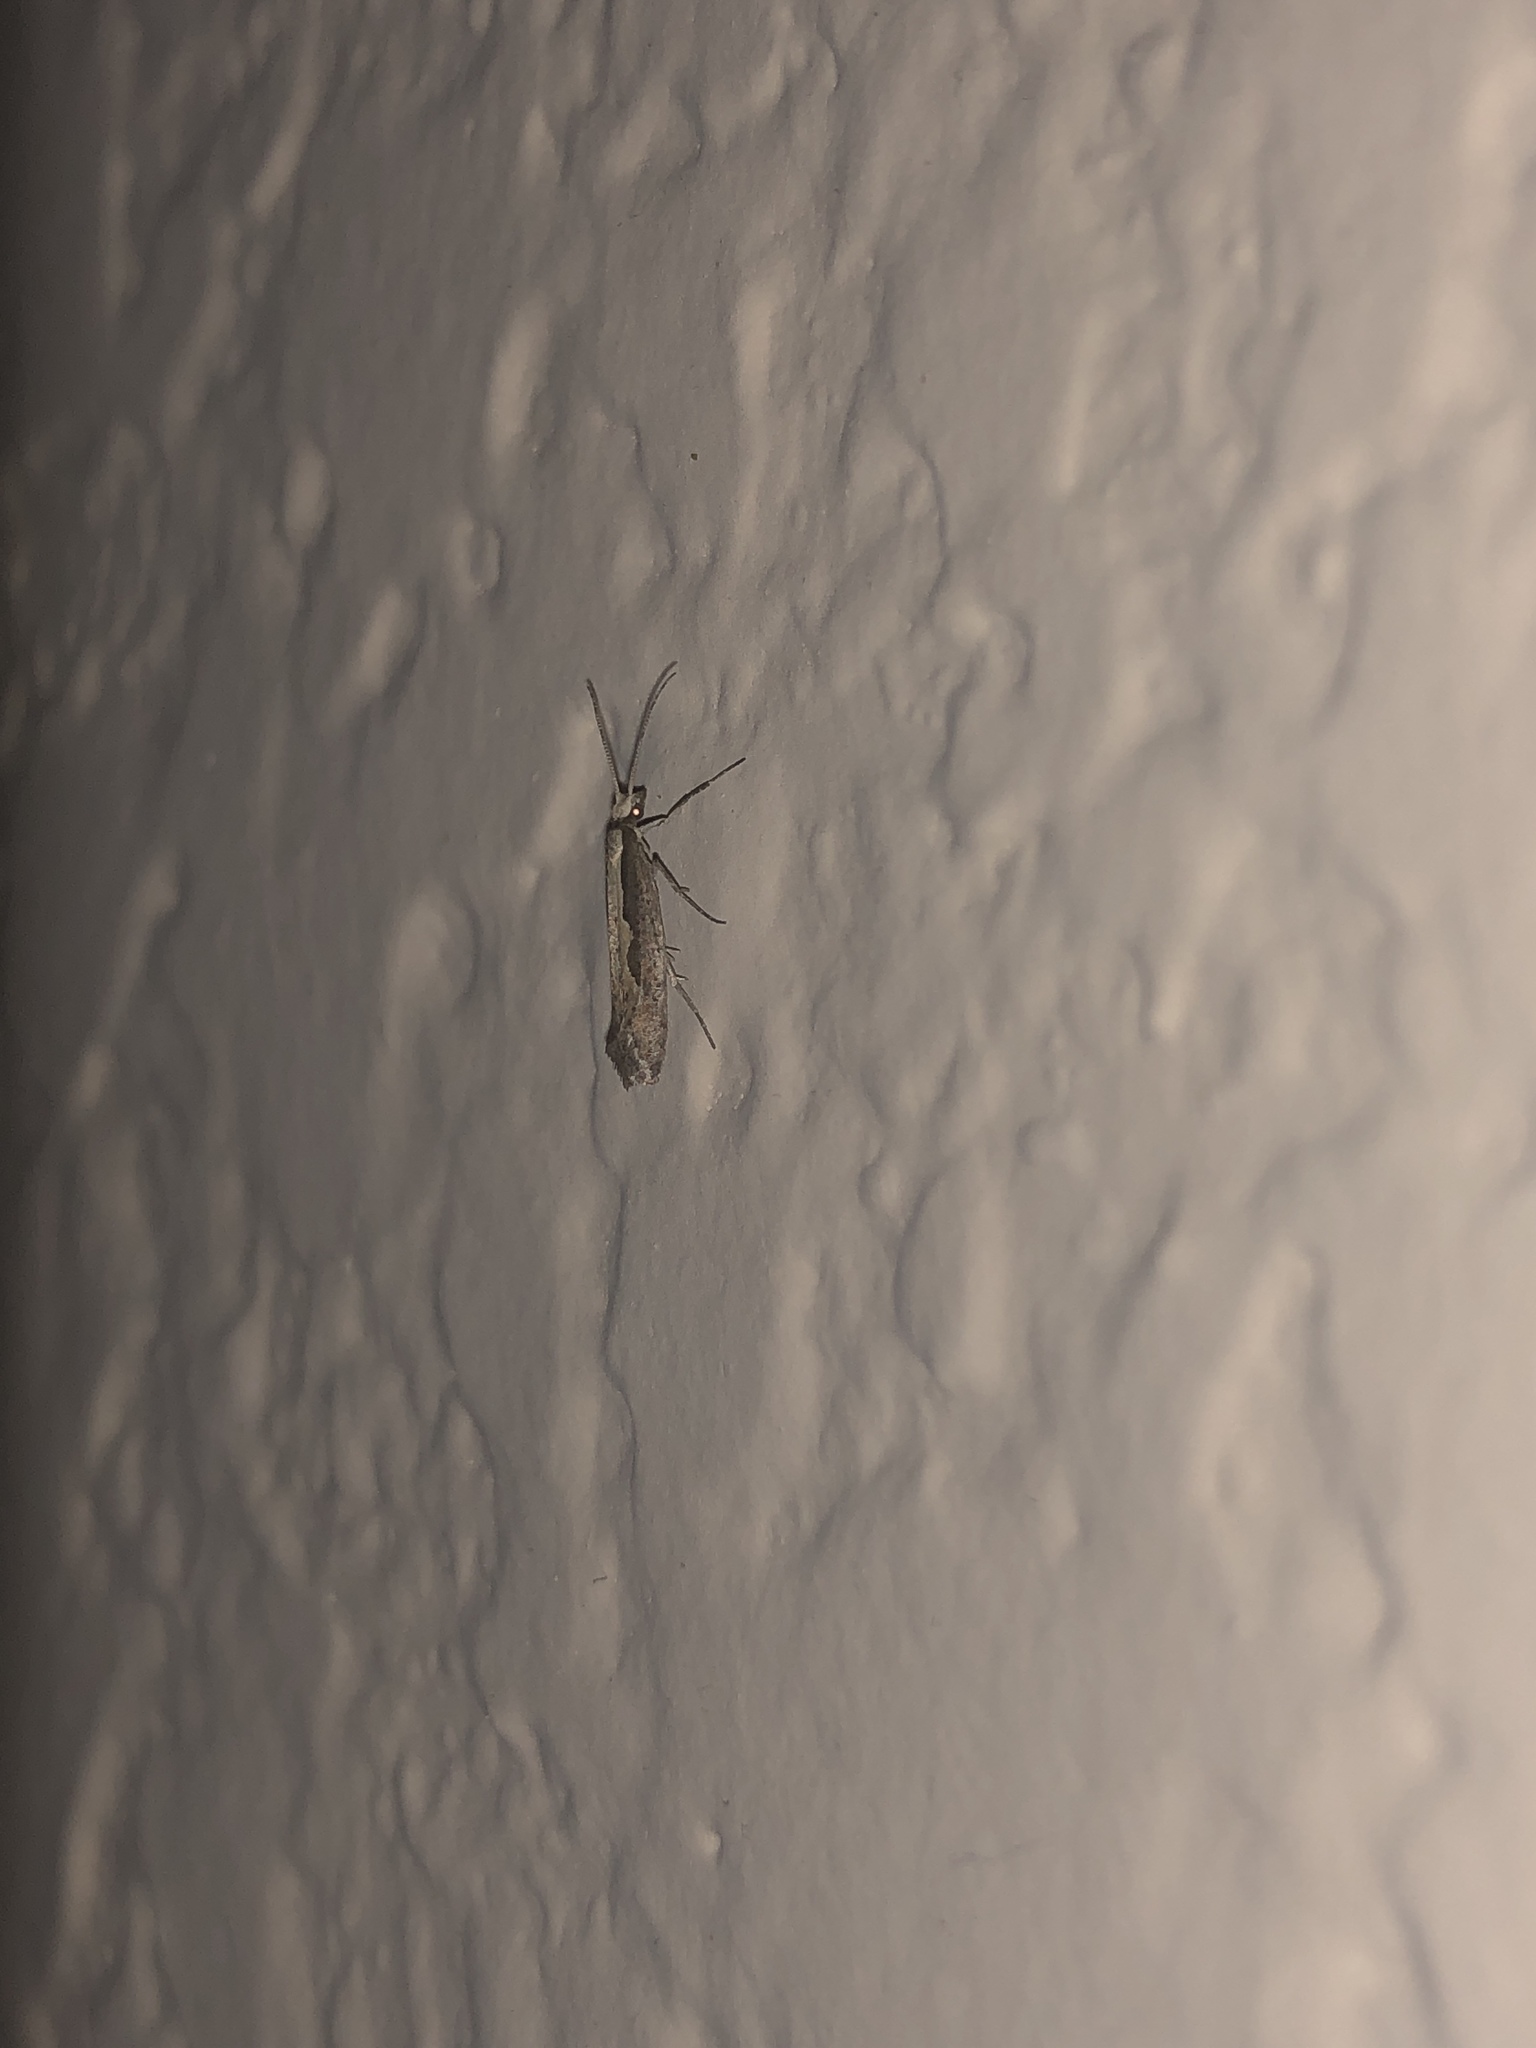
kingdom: Animalia
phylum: Arthropoda
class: Insecta
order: Lepidoptera
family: Plutellidae
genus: Plutella
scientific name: Plutella xylostella
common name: Diamond-back moth
